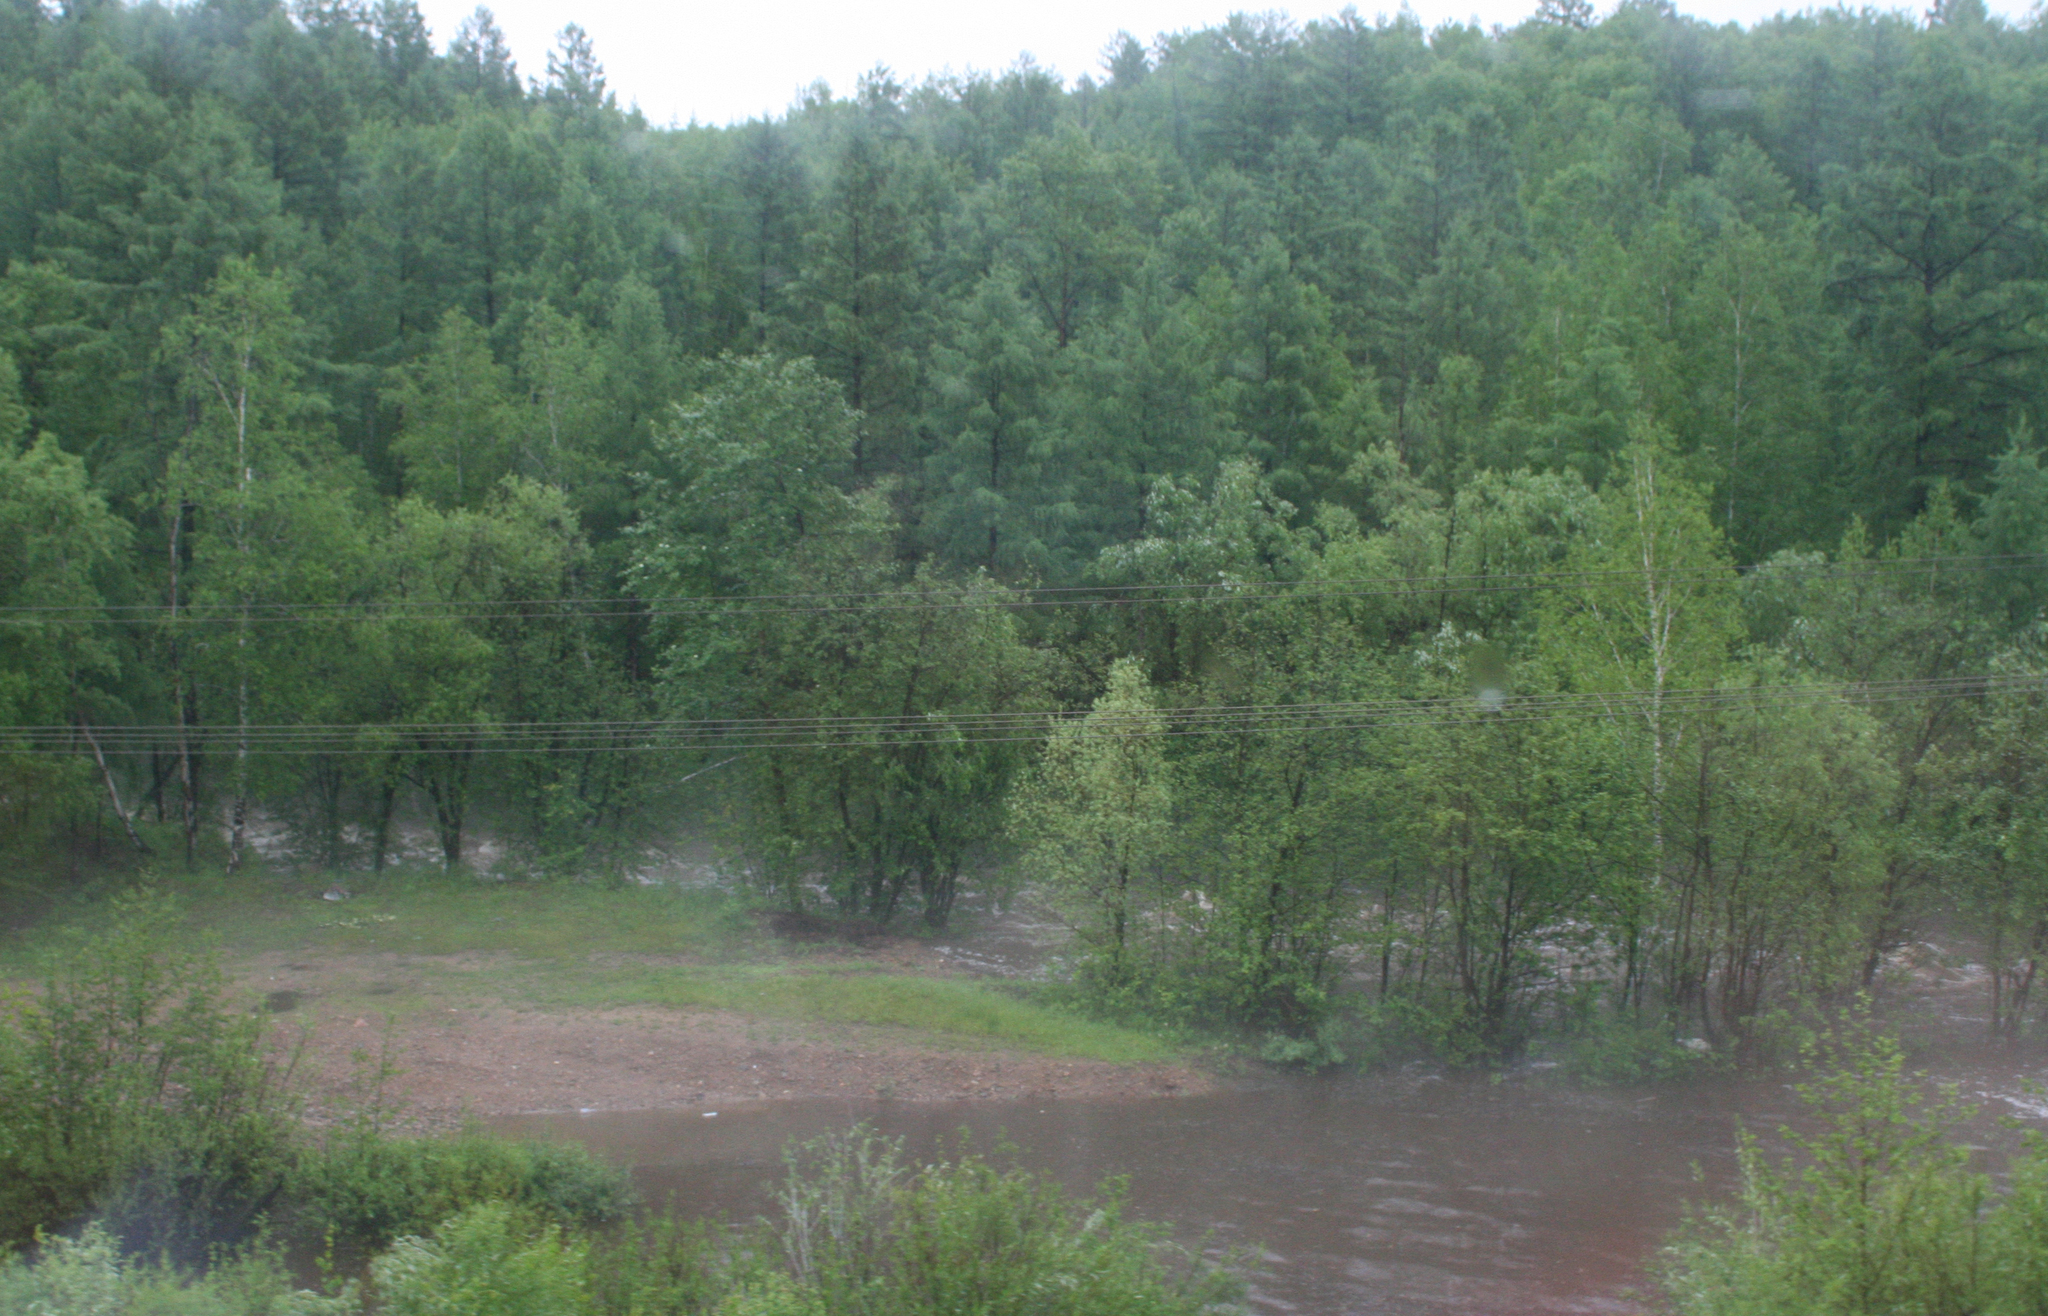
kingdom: Plantae
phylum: Tracheophyta
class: Pinopsida
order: Pinales
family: Pinaceae
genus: Larix
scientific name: Larix gmelinii
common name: Dahurian larch
